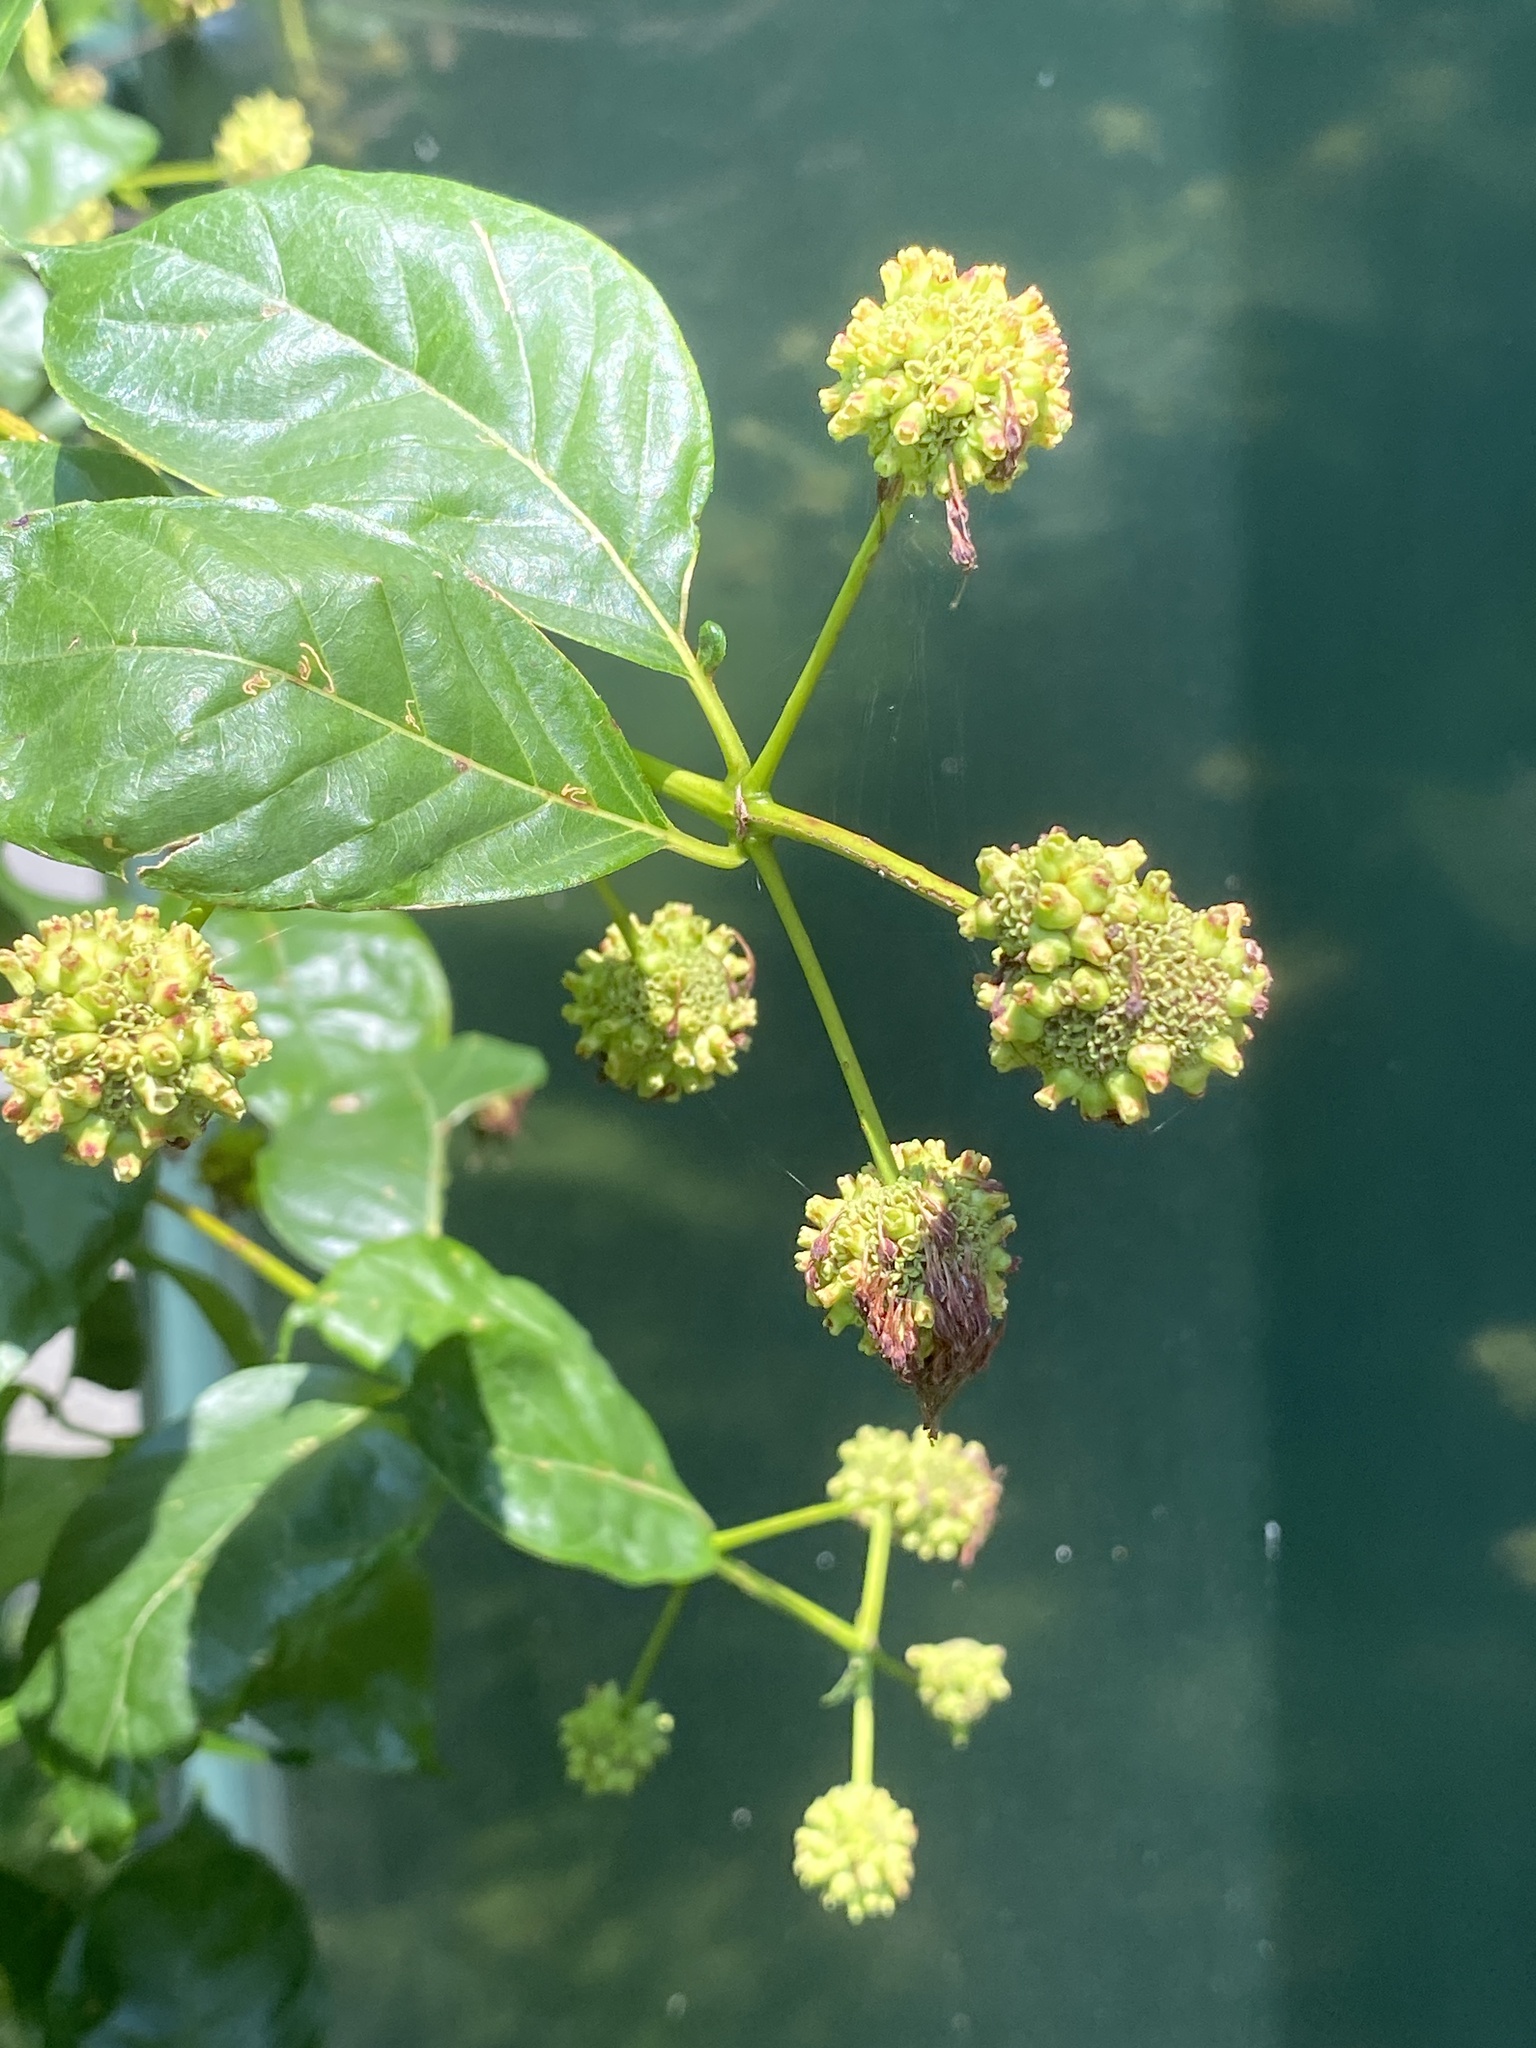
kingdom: Plantae
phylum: Tracheophyta
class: Magnoliopsida
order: Gentianales
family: Rubiaceae
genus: Cephalanthus
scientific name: Cephalanthus occidentalis
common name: Button-willow
